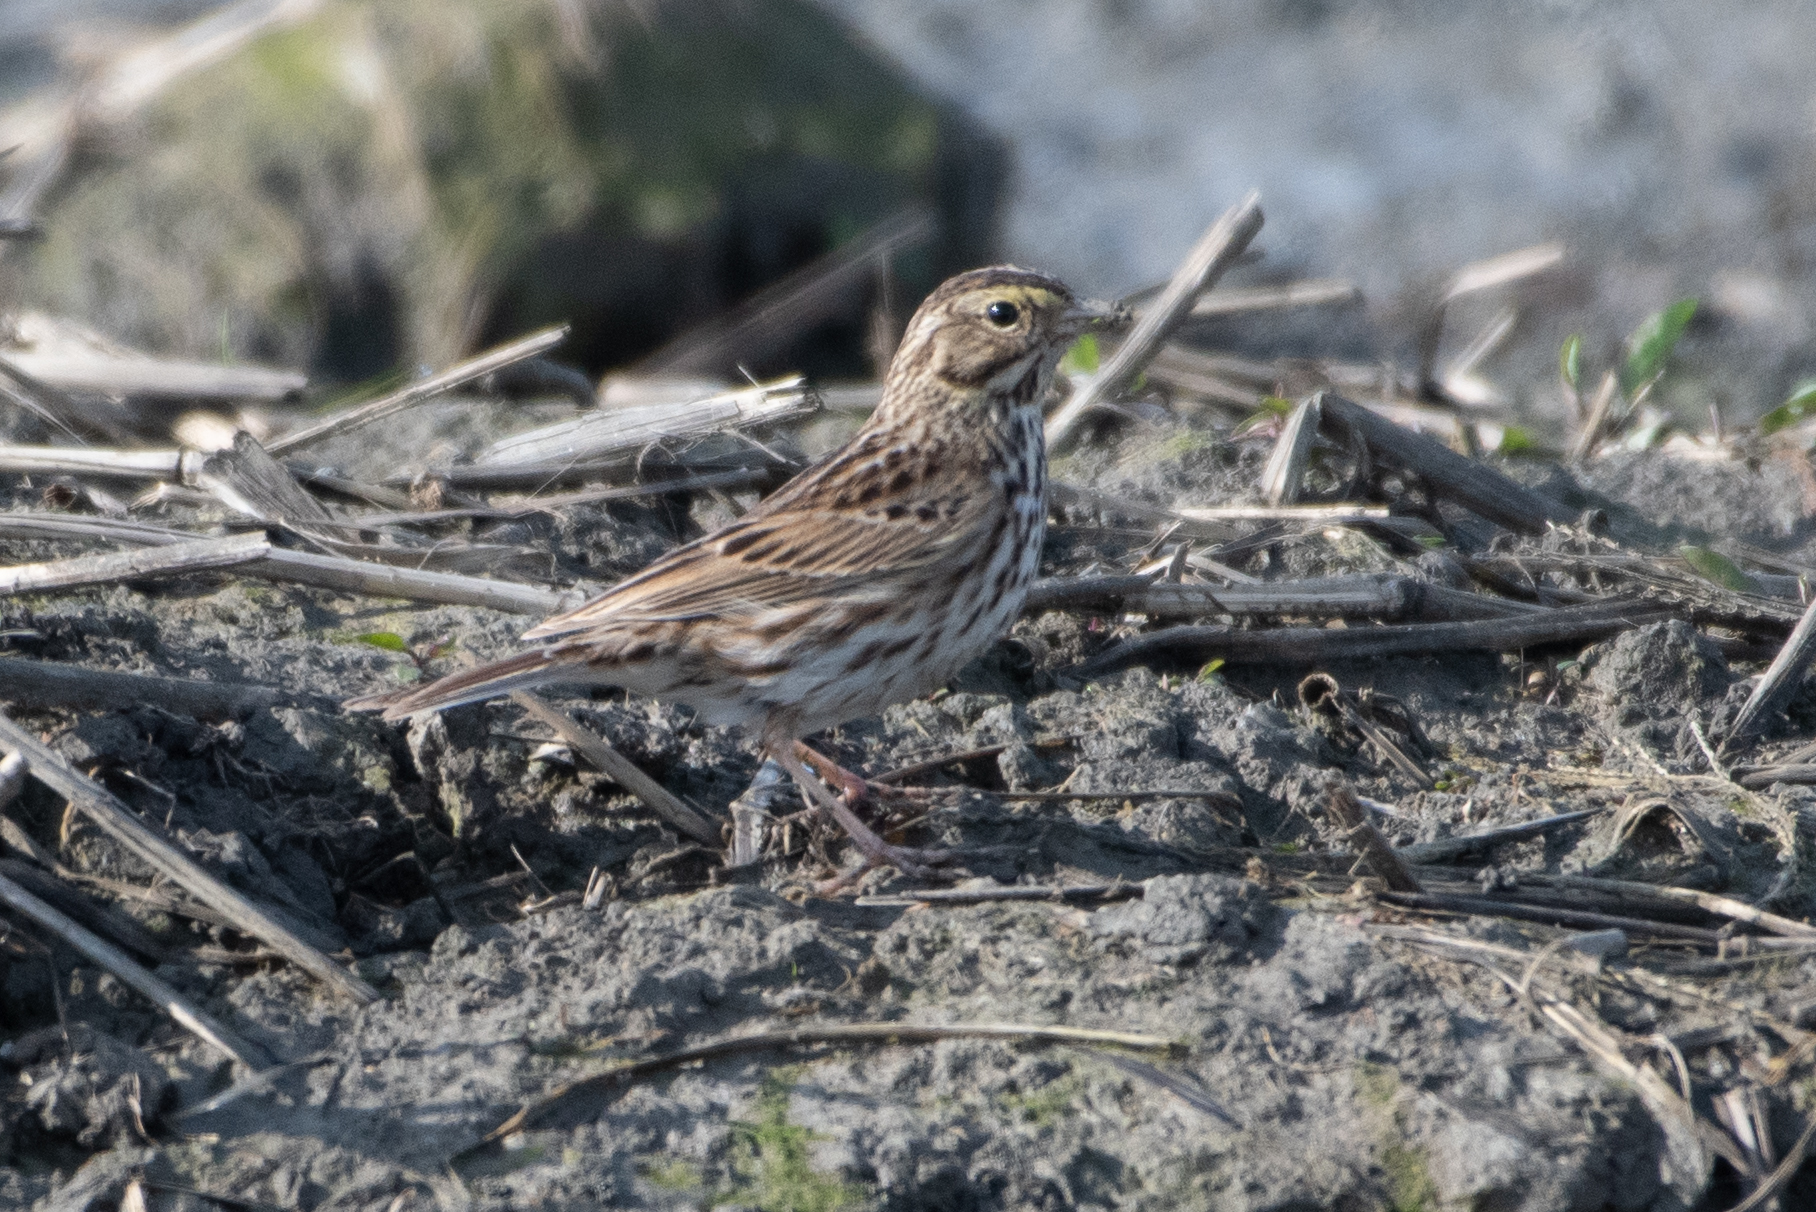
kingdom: Animalia
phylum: Chordata
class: Aves
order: Passeriformes
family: Passerellidae
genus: Passerculus
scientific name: Passerculus sandwichensis
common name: Savannah sparrow
